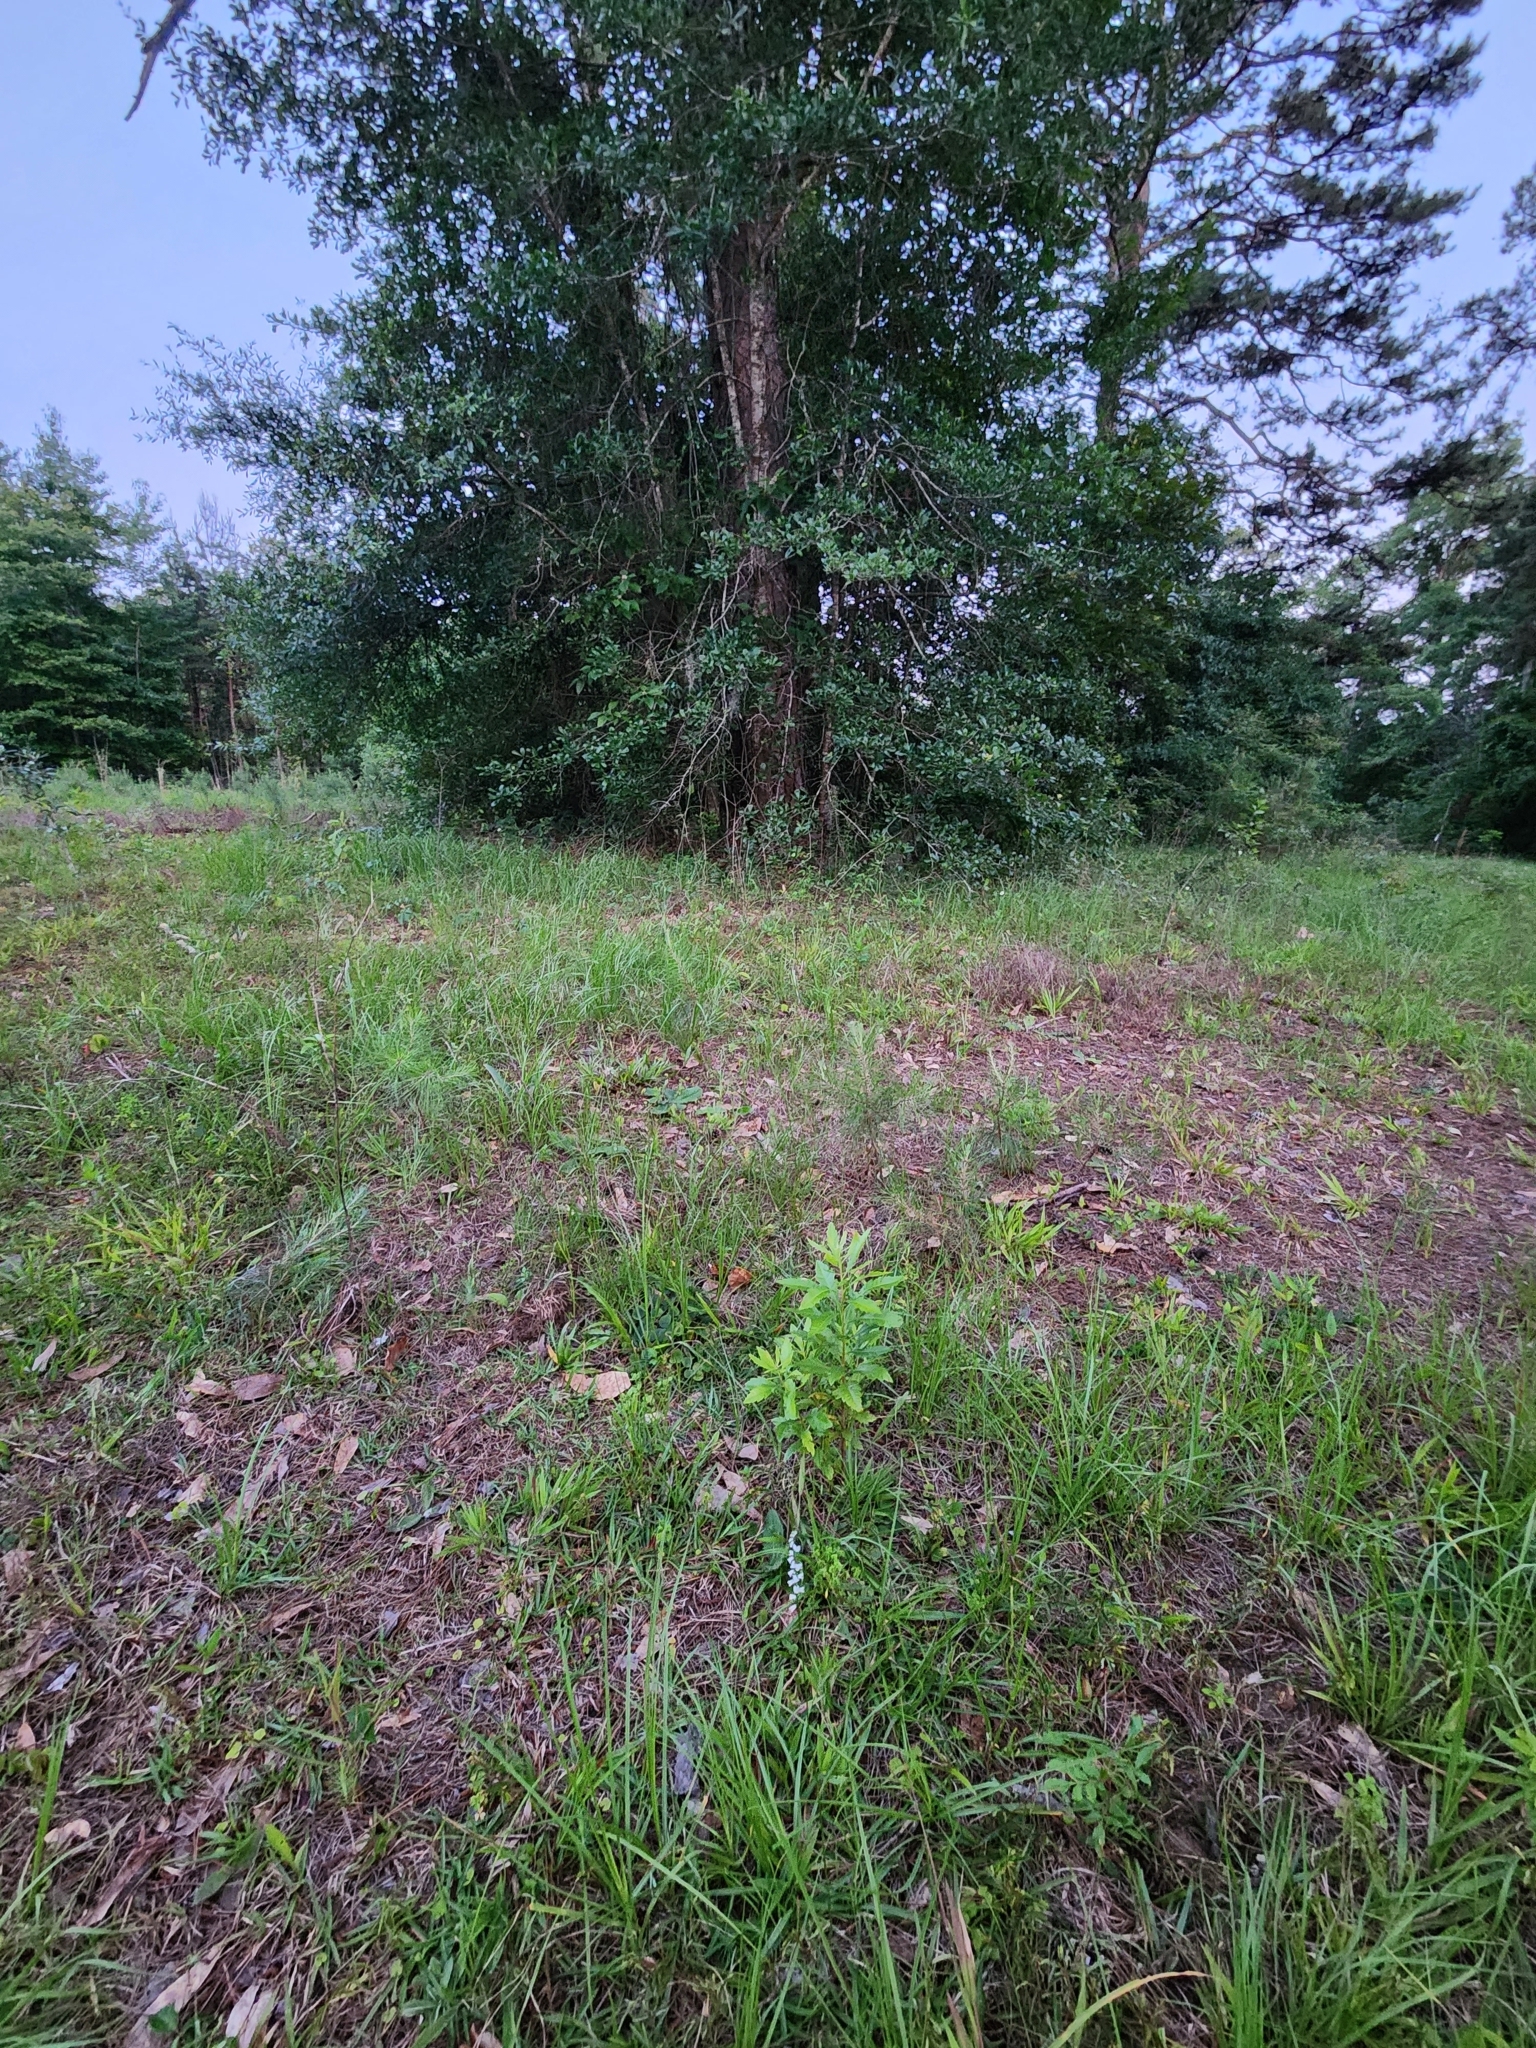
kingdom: Plantae
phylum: Tracheophyta
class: Liliopsida
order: Asparagales
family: Orchidaceae
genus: Spiranthes
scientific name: Spiranthes tuberosa
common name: Little ladies'-tresses
